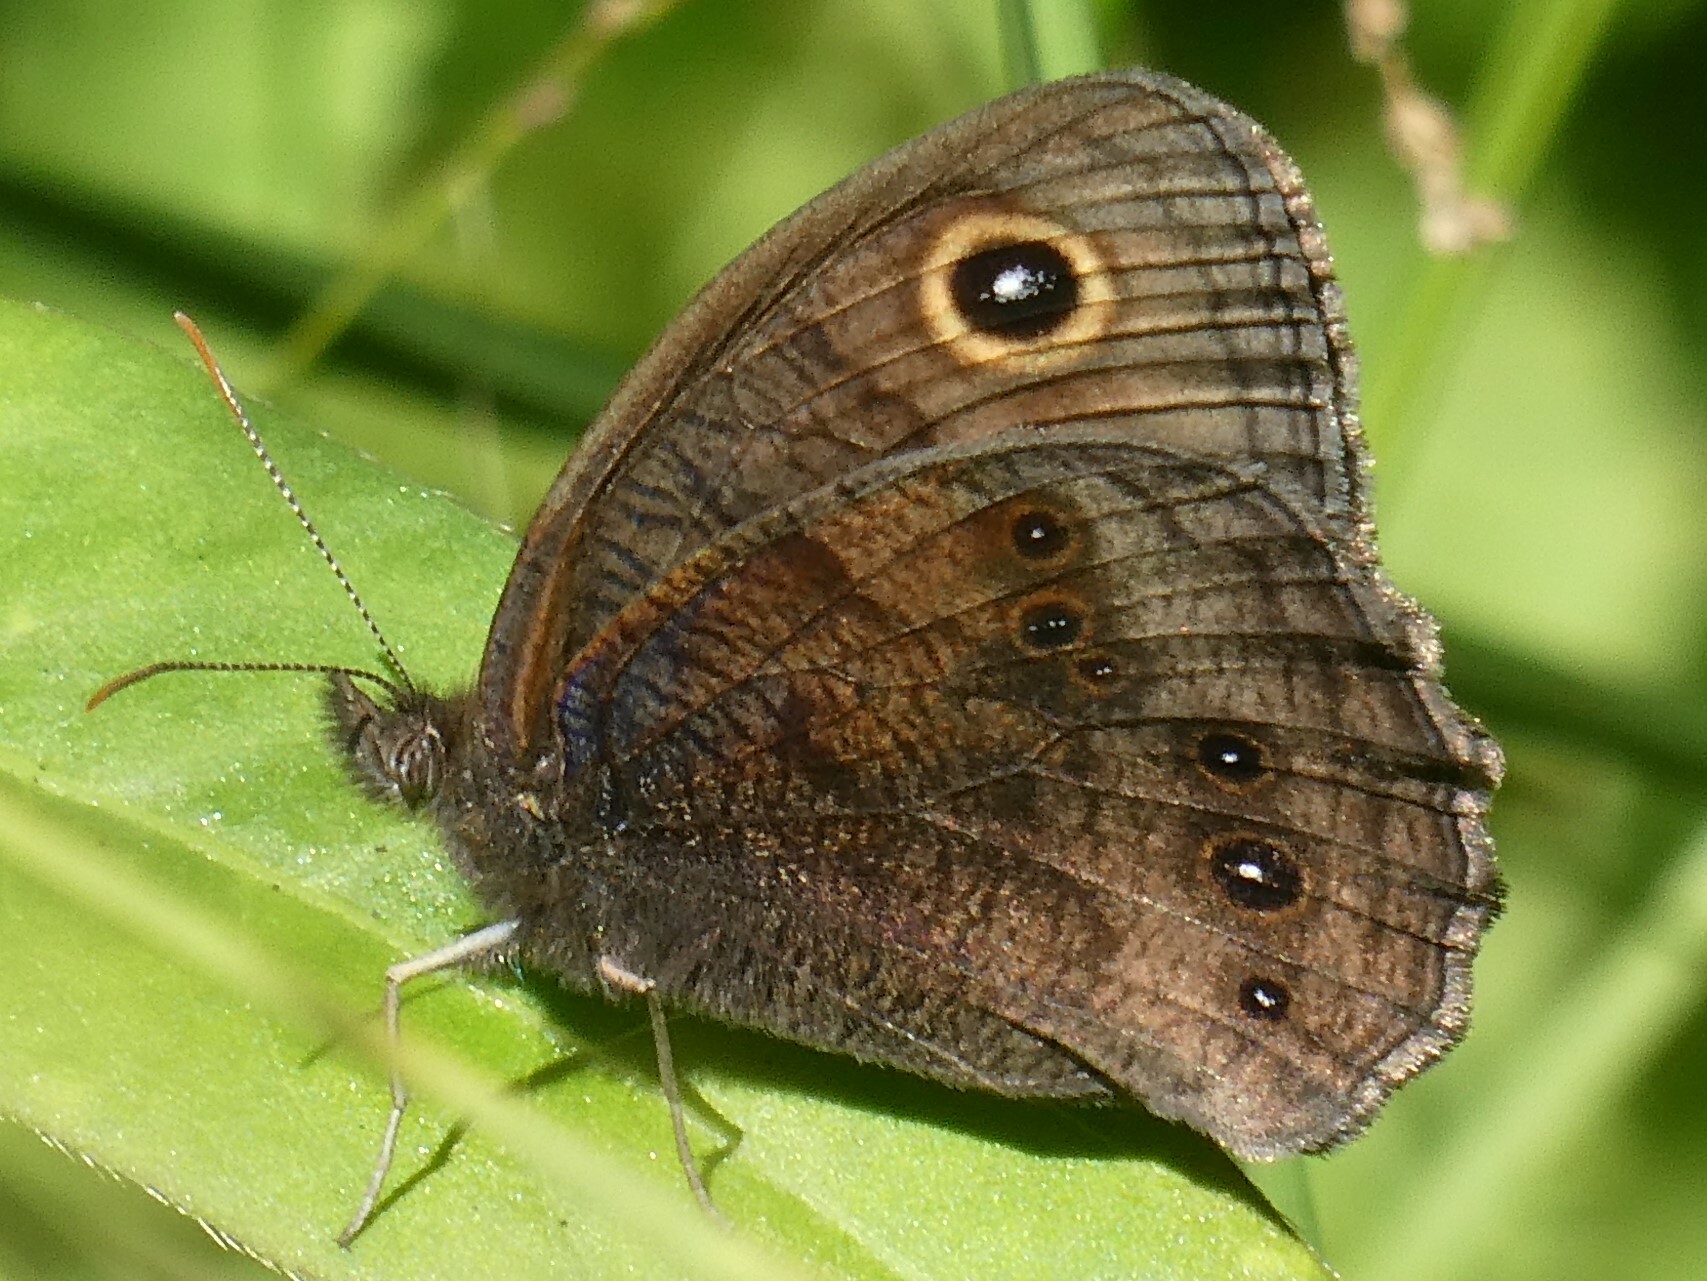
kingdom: Animalia
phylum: Arthropoda
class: Insecta
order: Lepidoptera
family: Nymphalidae
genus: Cercyonis
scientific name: Cercyonis pegala
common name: Common wood-nymph
